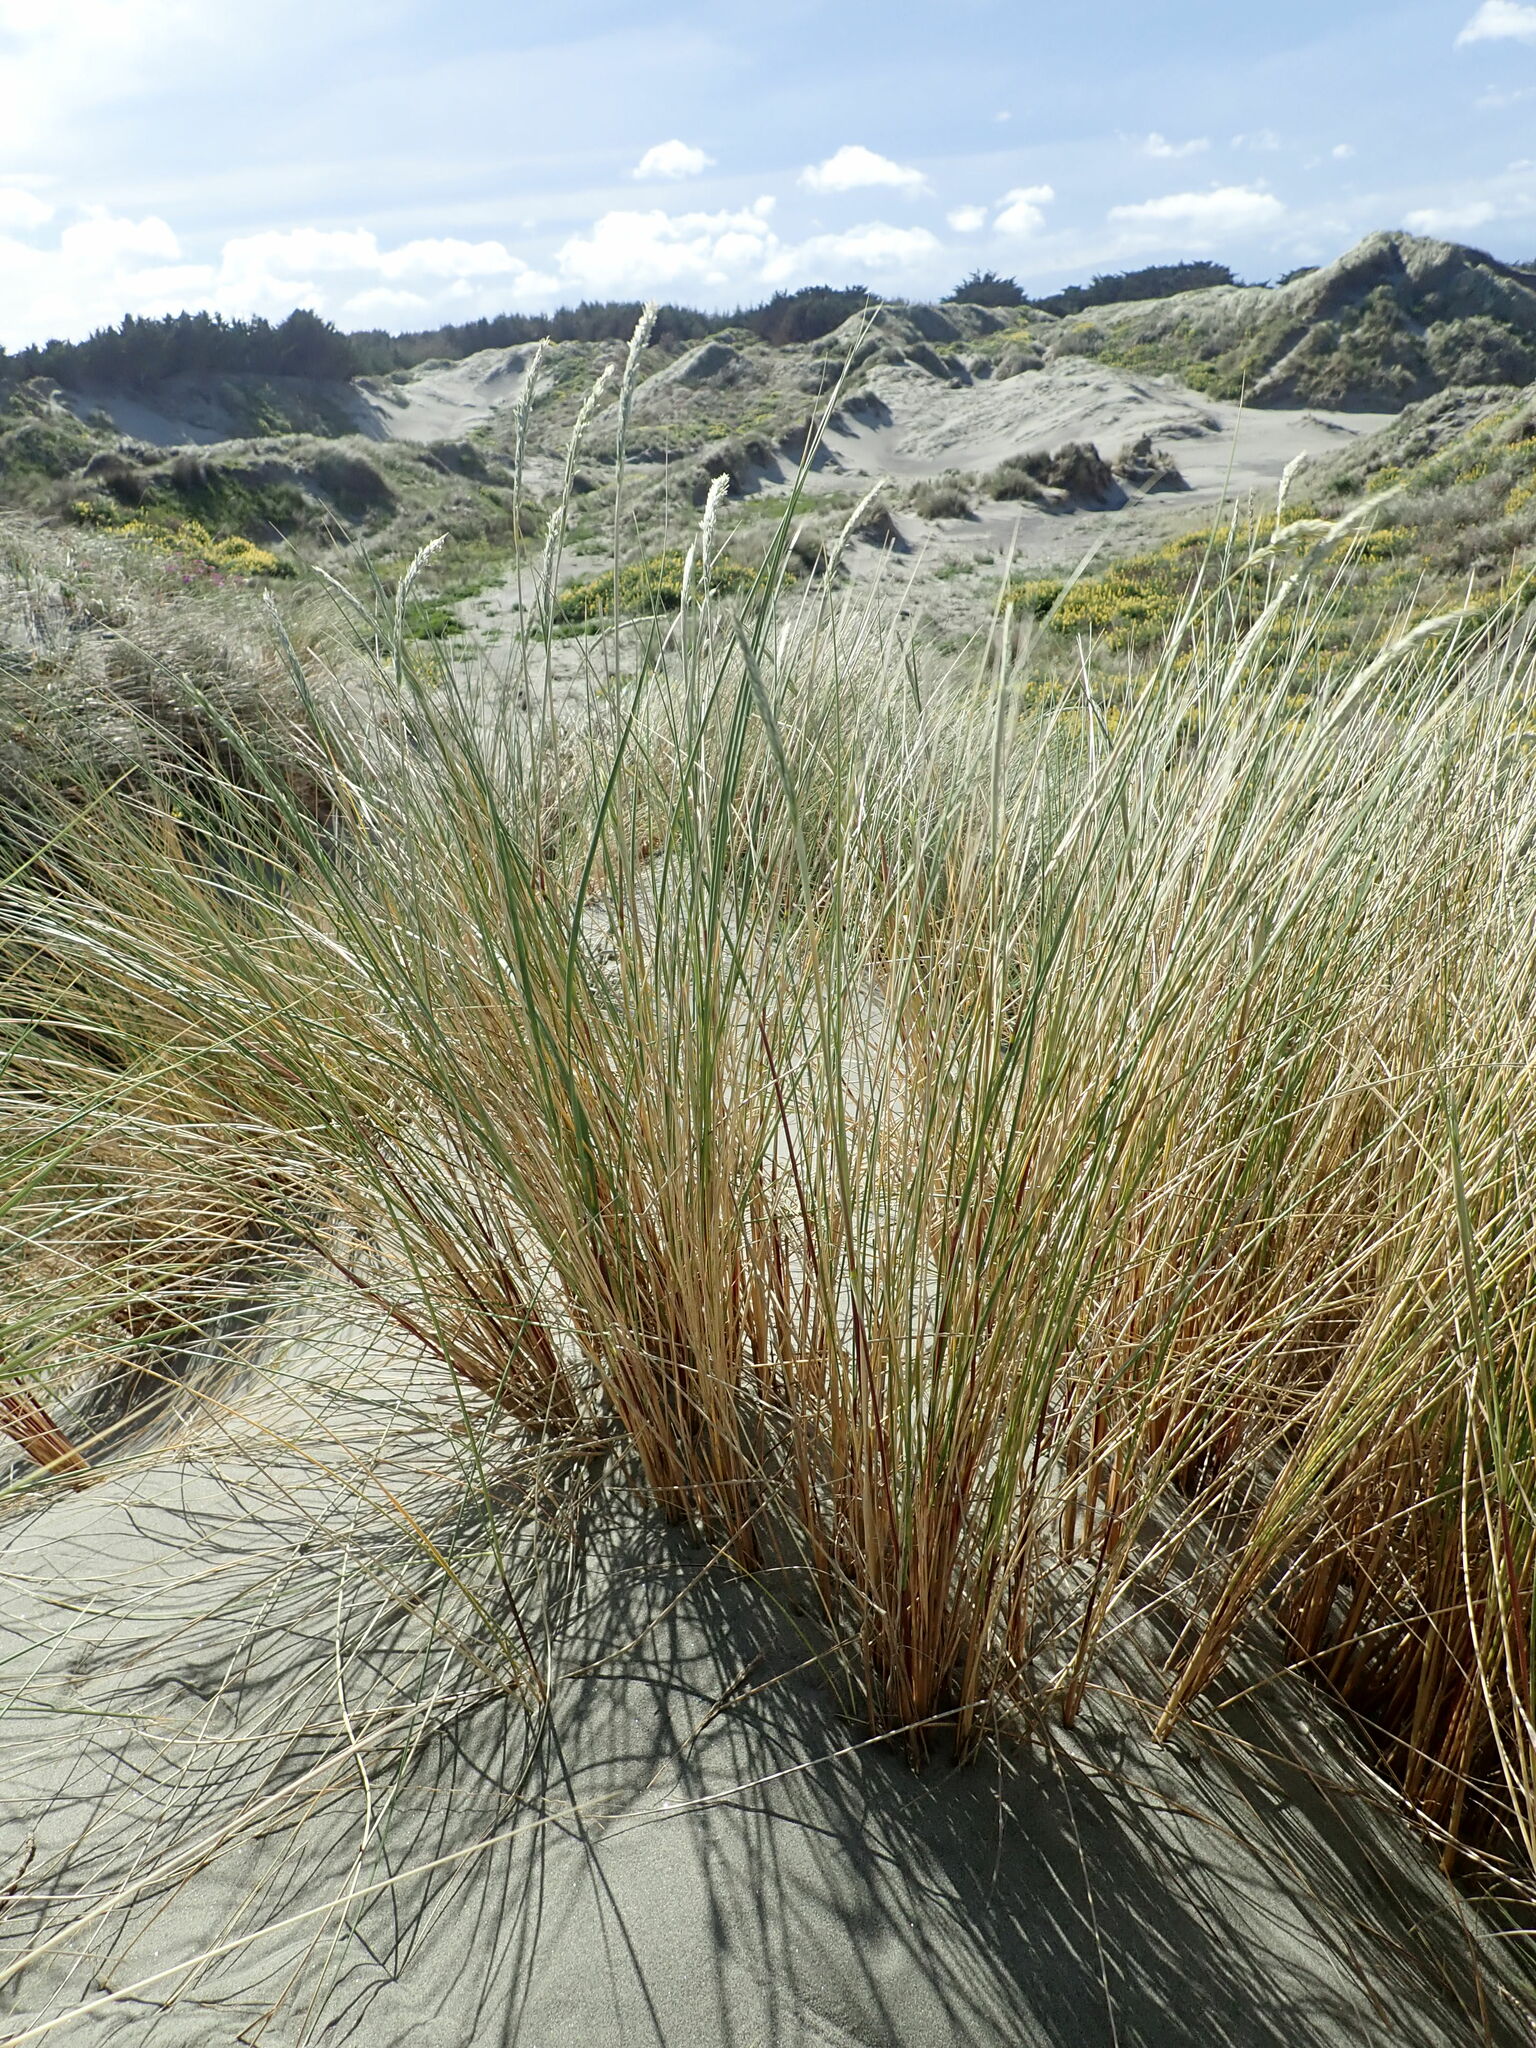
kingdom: Plantae
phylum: Tracheophyta
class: Liliopsida
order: Poales
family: Poaceae
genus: Calamagrostis
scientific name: Calamagrostis arenaria
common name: European beachgrass
